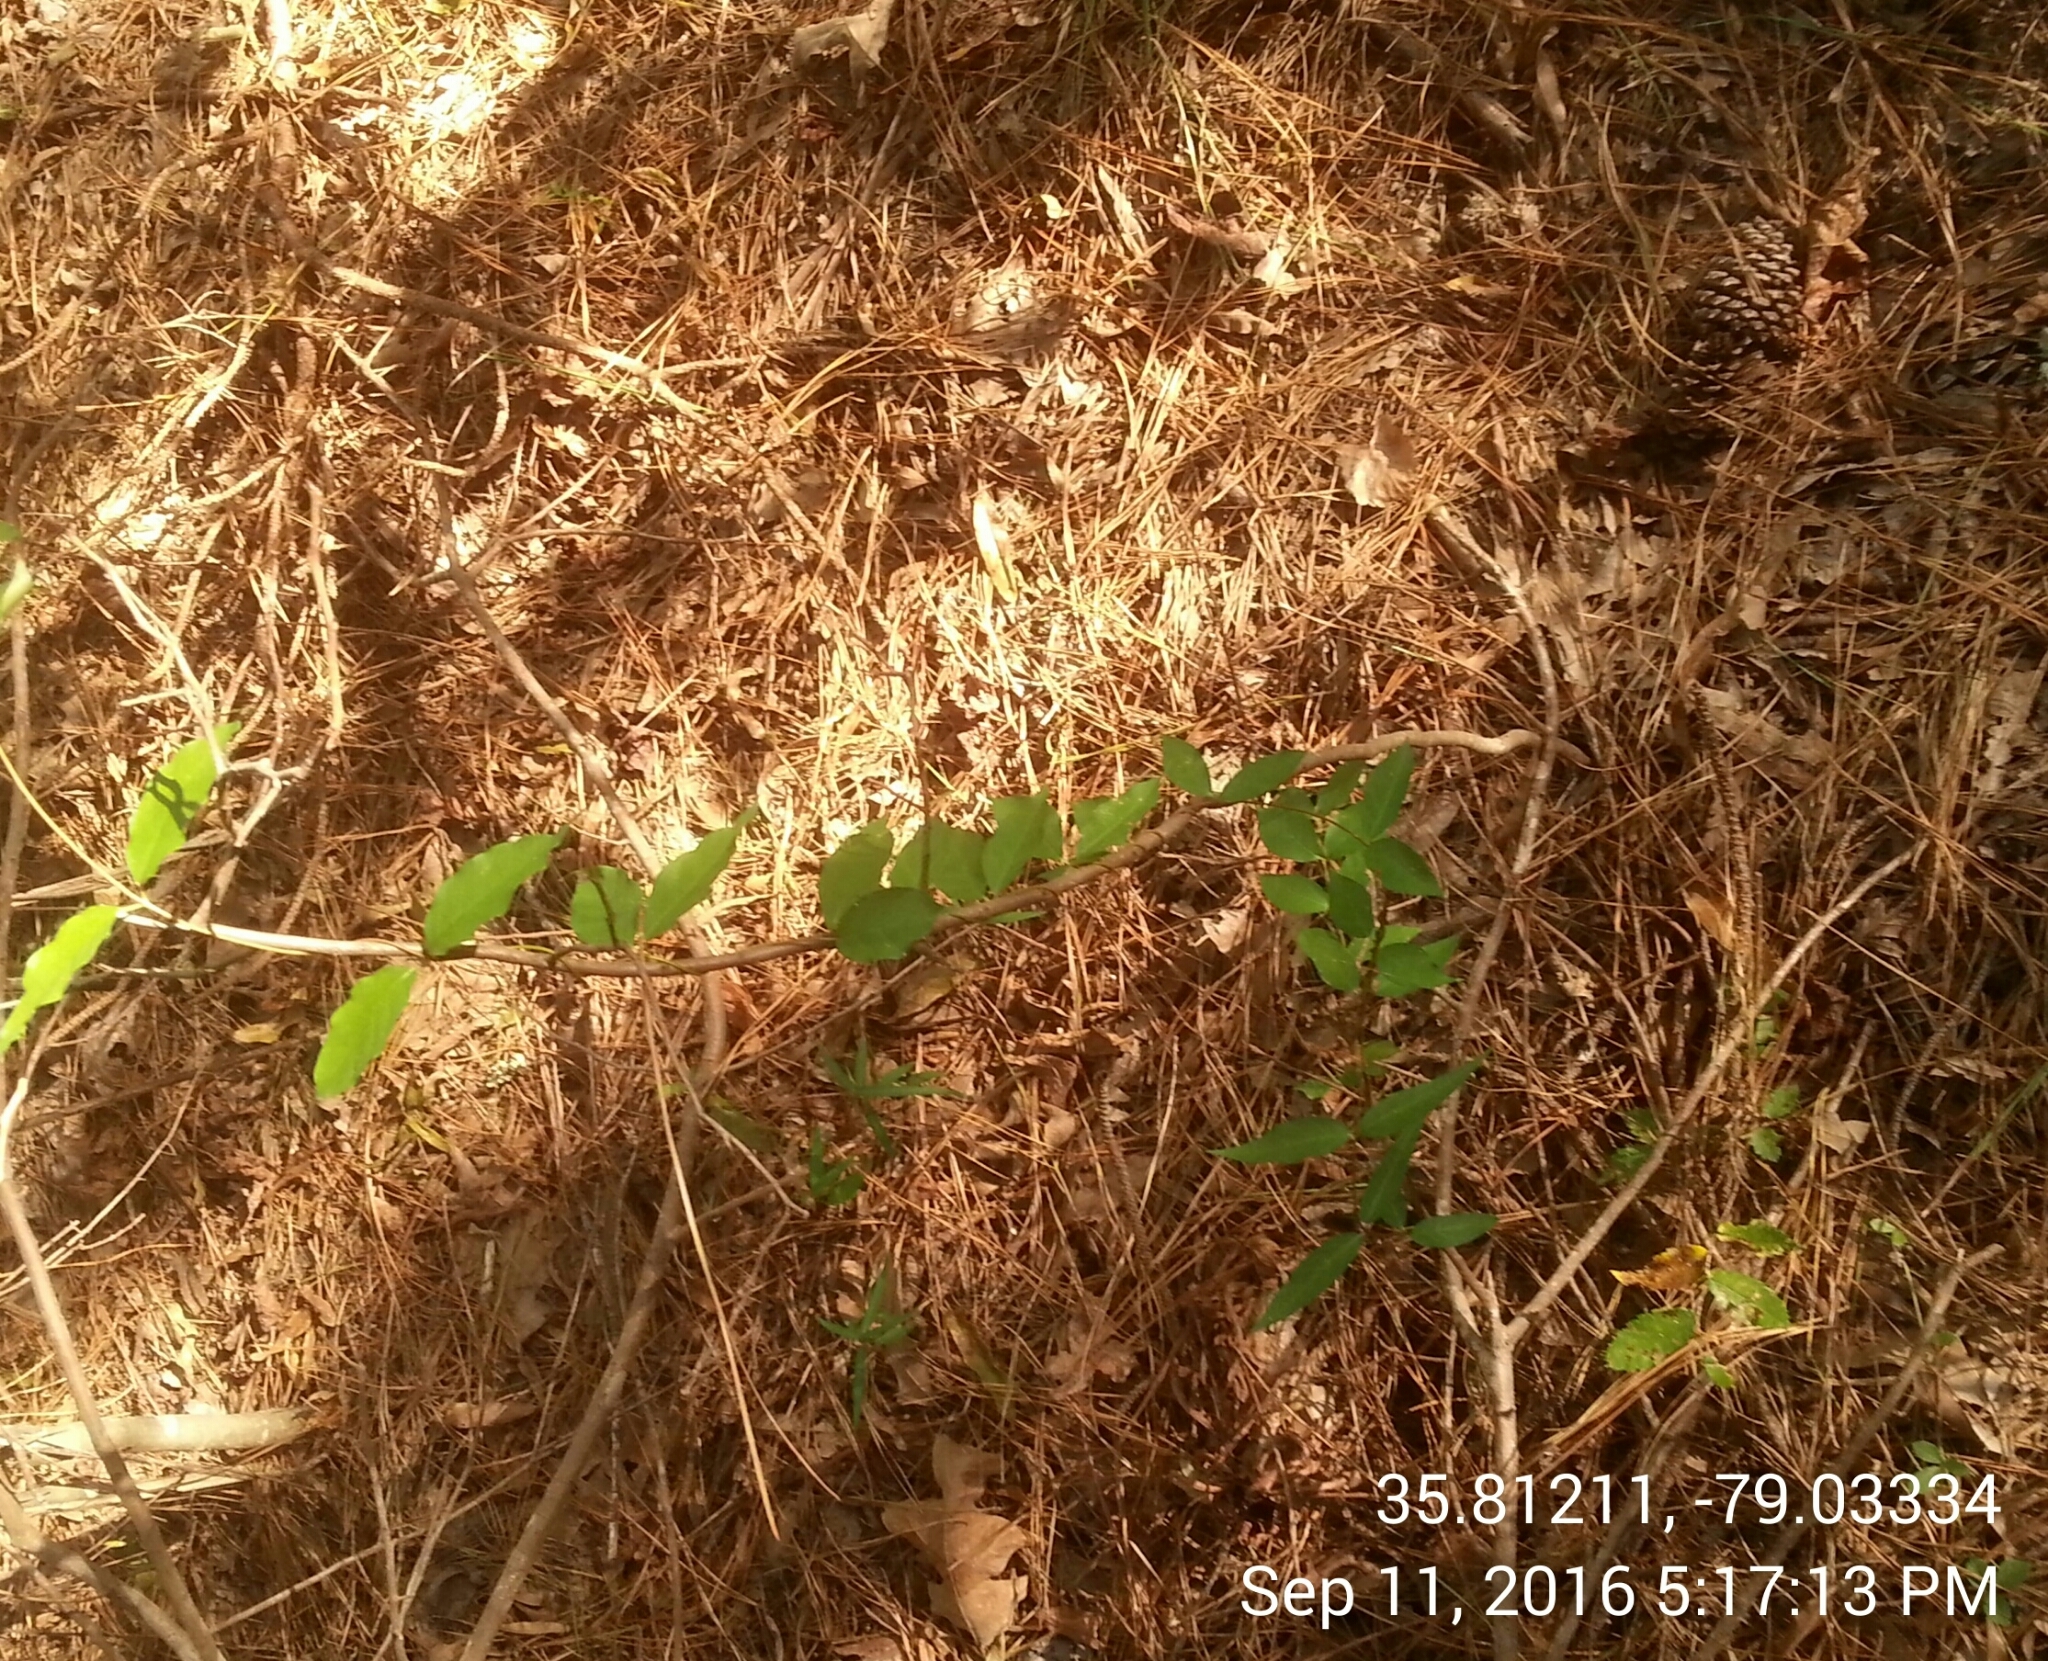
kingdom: Plantae
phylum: Tracheophyta
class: Magnoliopsida
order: Gentianales
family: Apocynaceae
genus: Thyrsanthella
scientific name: Thyrsanthella difformis
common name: Climbing dogbane
